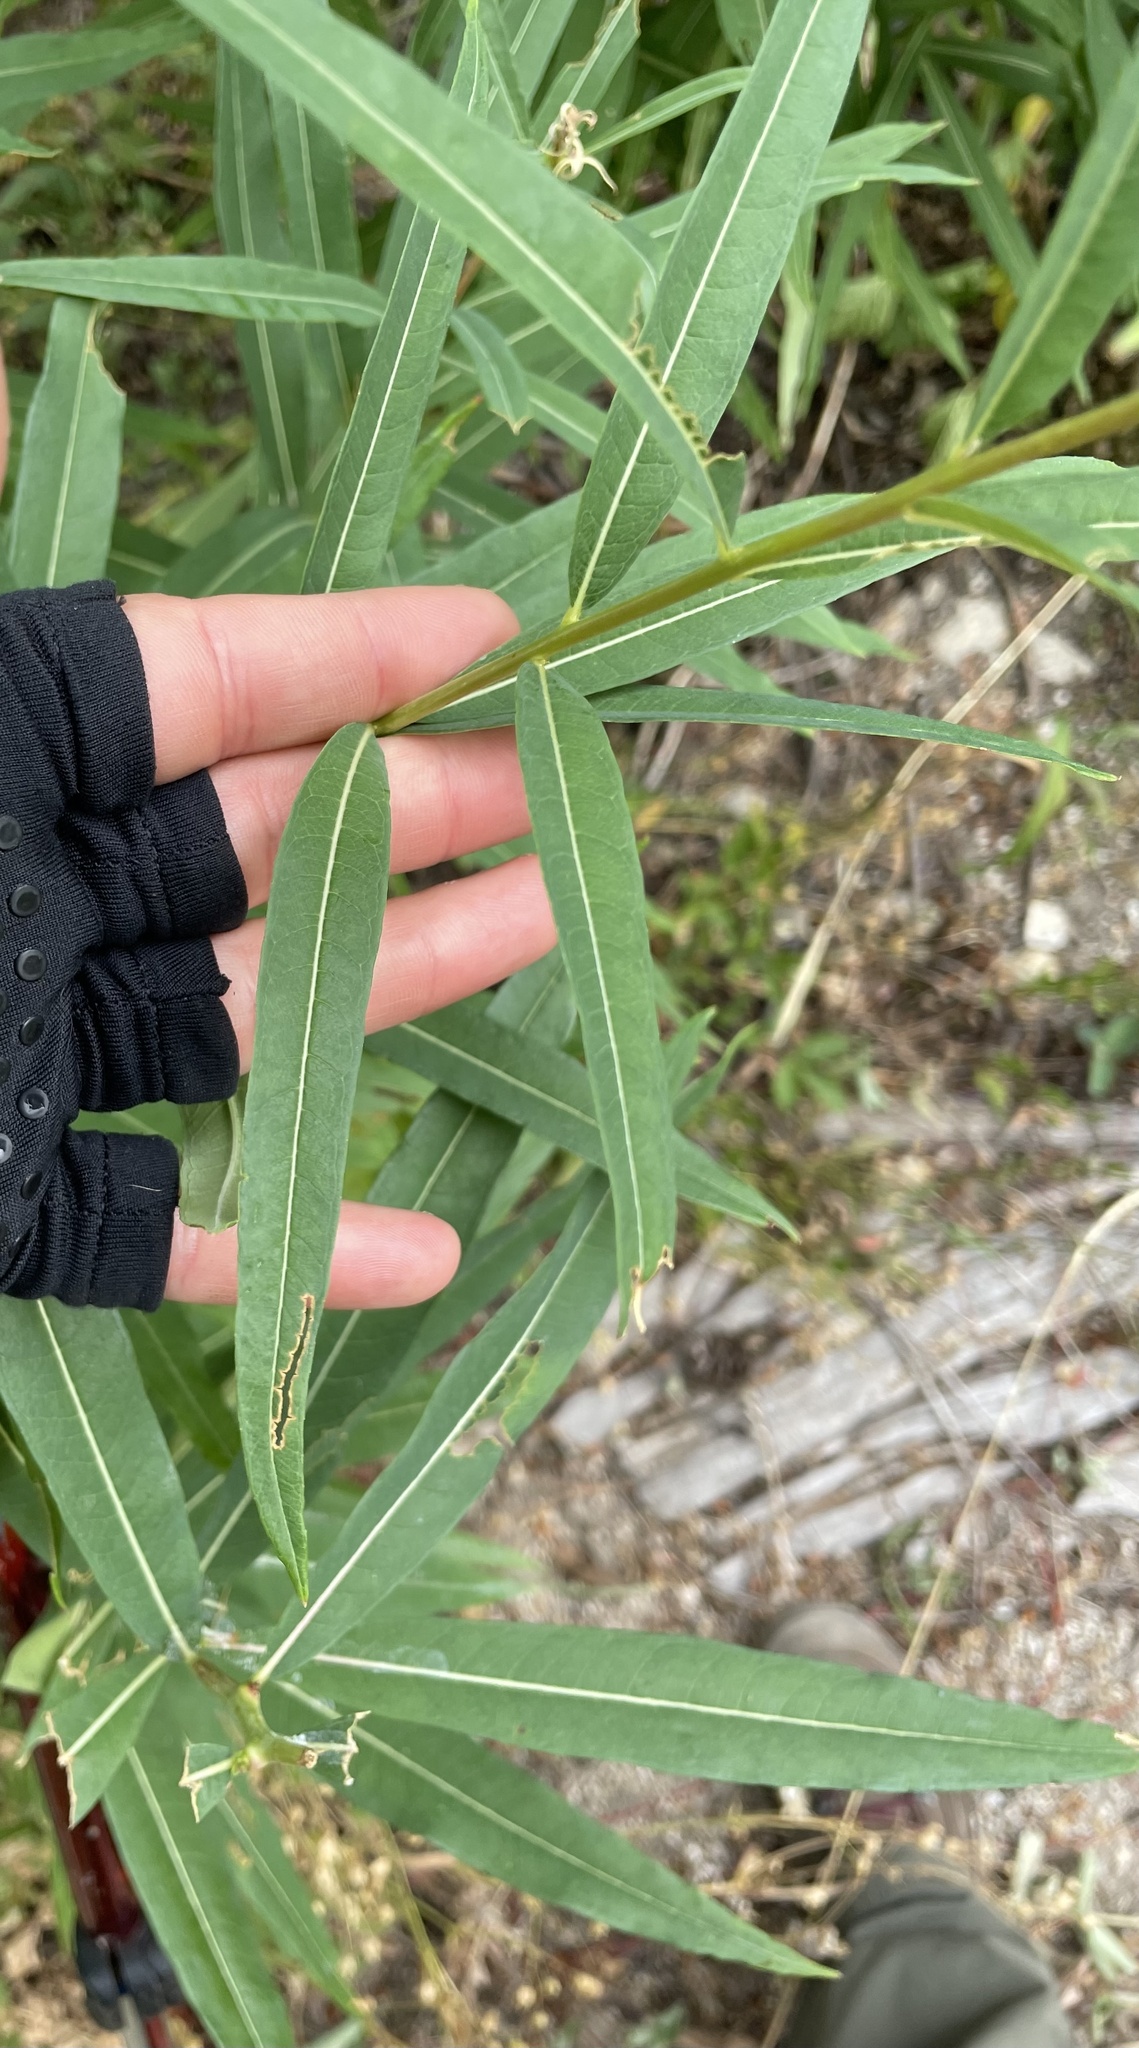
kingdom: Plantae
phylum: Tracheophyta
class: Magnoliopsida
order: Myrtales
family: Onagraceae
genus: Chamaenerion
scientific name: Chamaenerion angustifolium
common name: Fireweed
